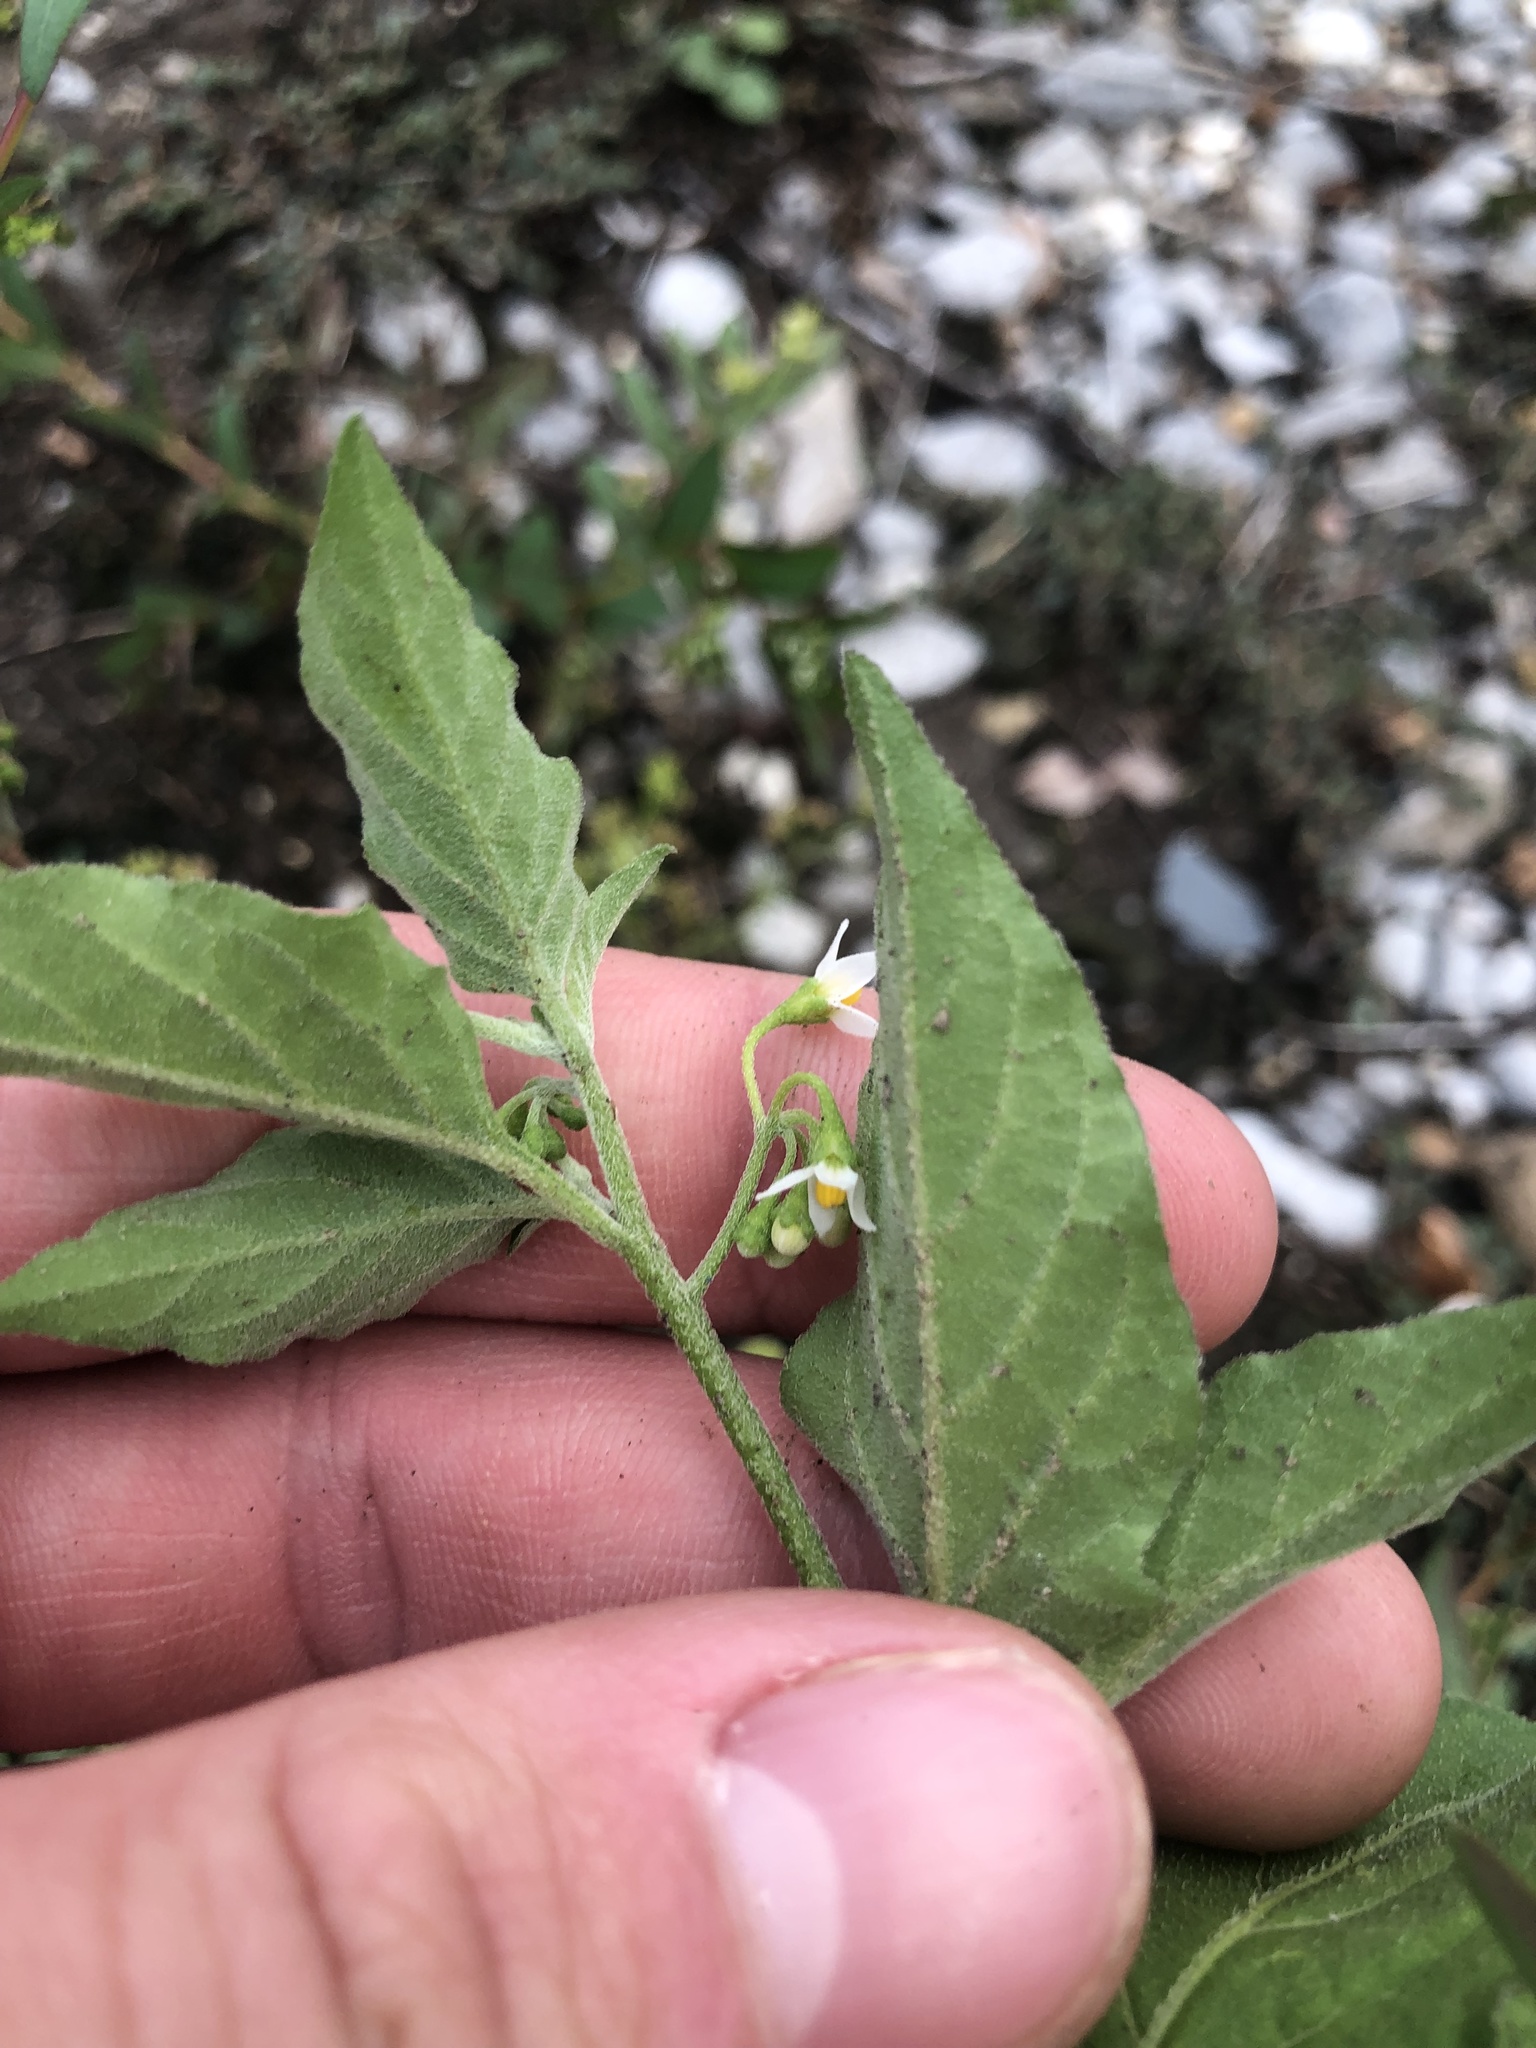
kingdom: Plantae
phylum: Tracheophyta
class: Magnoliopsida
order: Solanales
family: Solanaceae
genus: Solanum
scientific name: Solanum americanum
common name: American black nightshade
